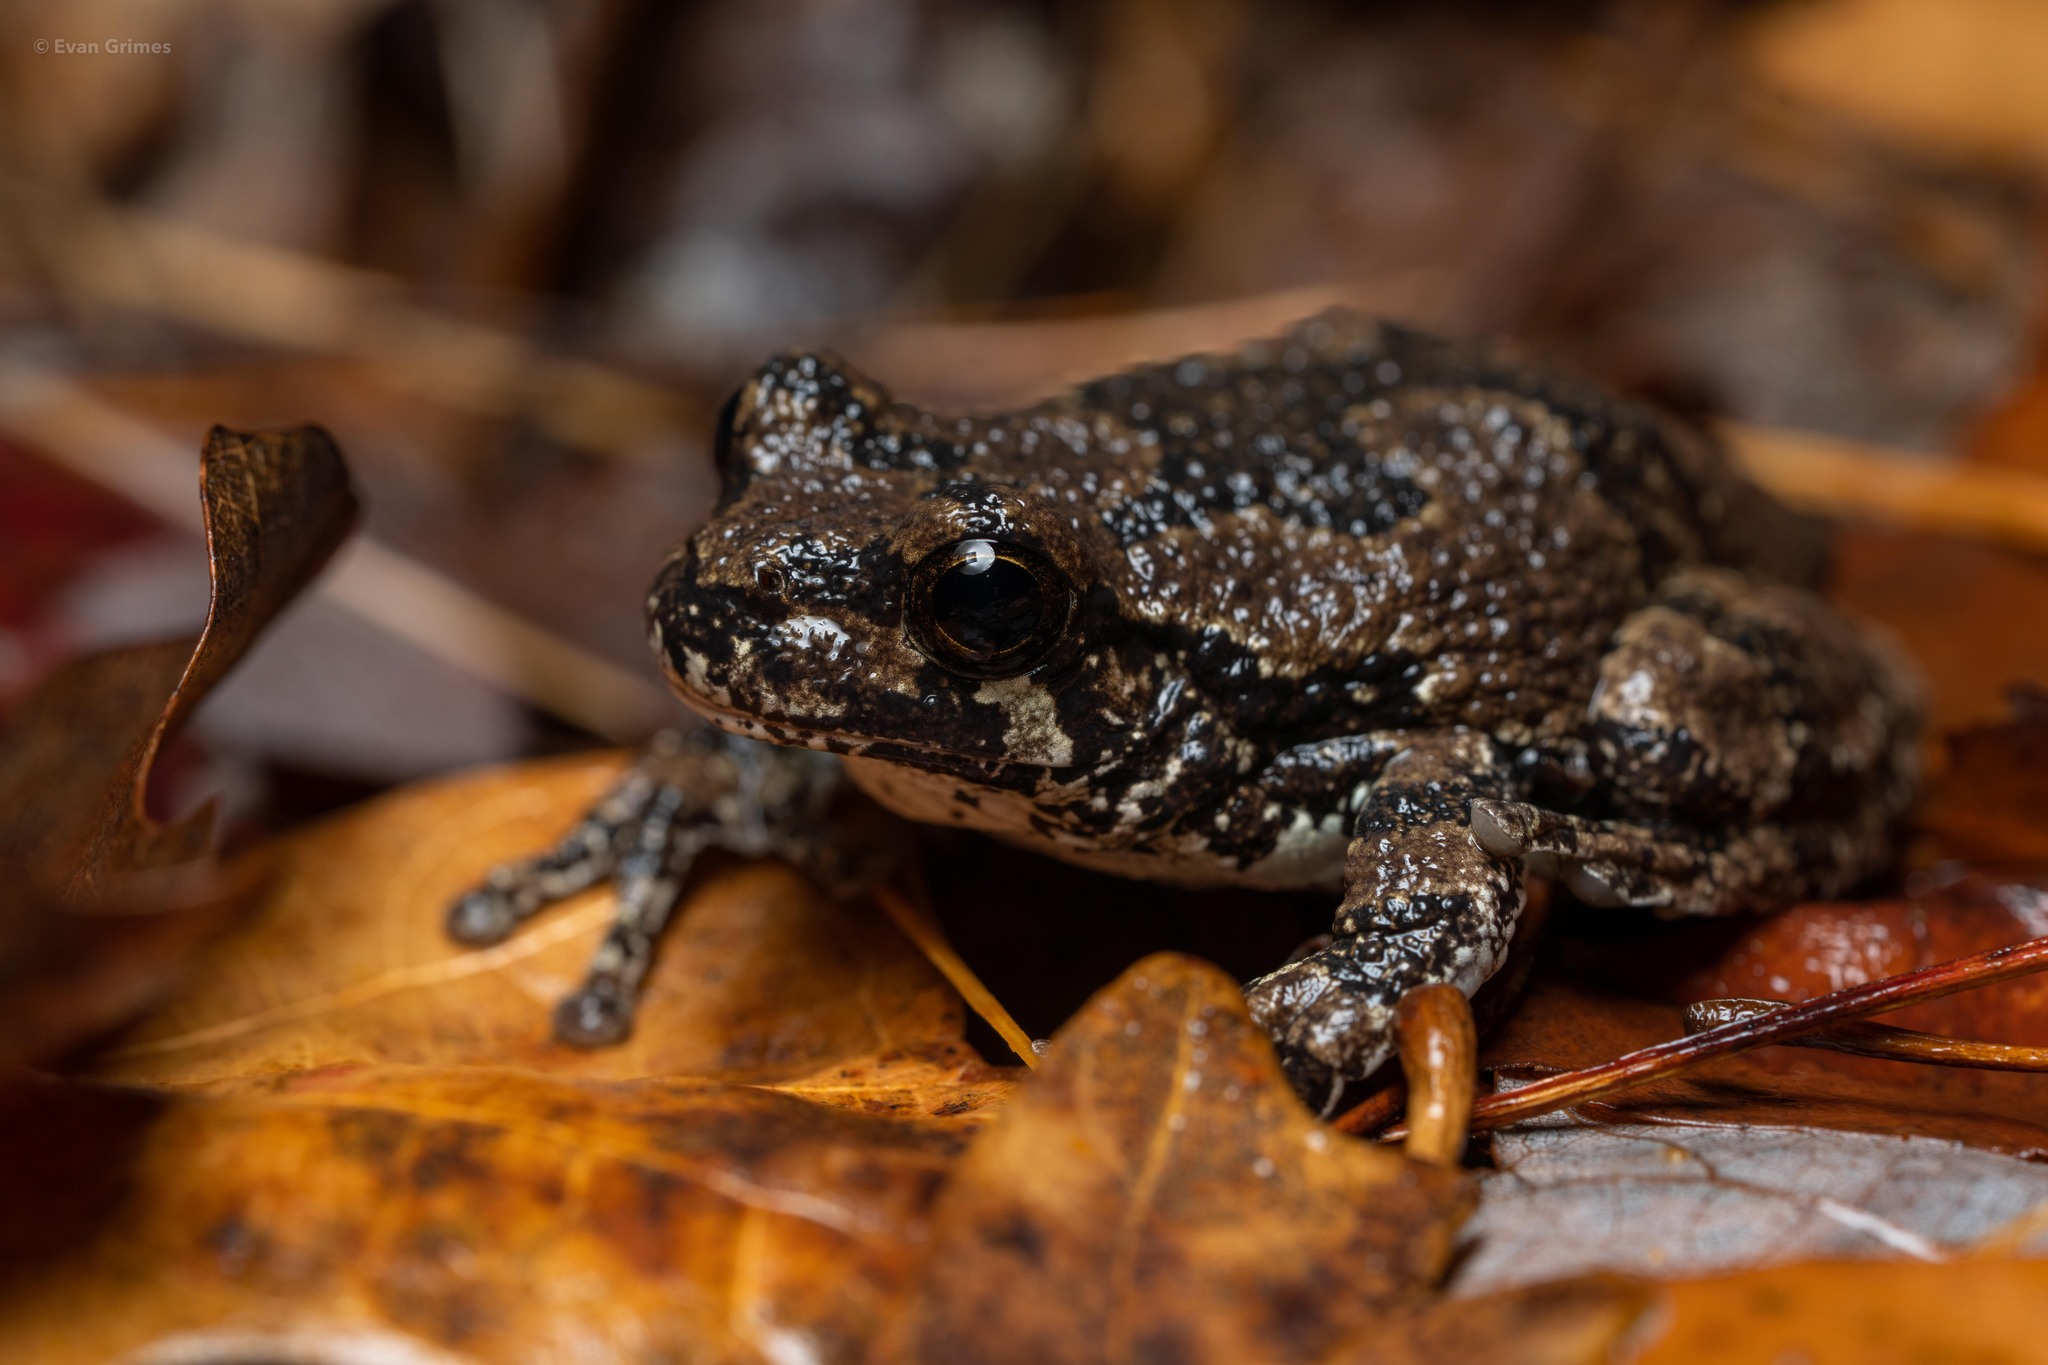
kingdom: Animalia
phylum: Chordata
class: Amphibia
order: Anura
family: Hylidae
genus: Dryophytes
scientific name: Dryophytes versicolor
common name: Gray treefrog
